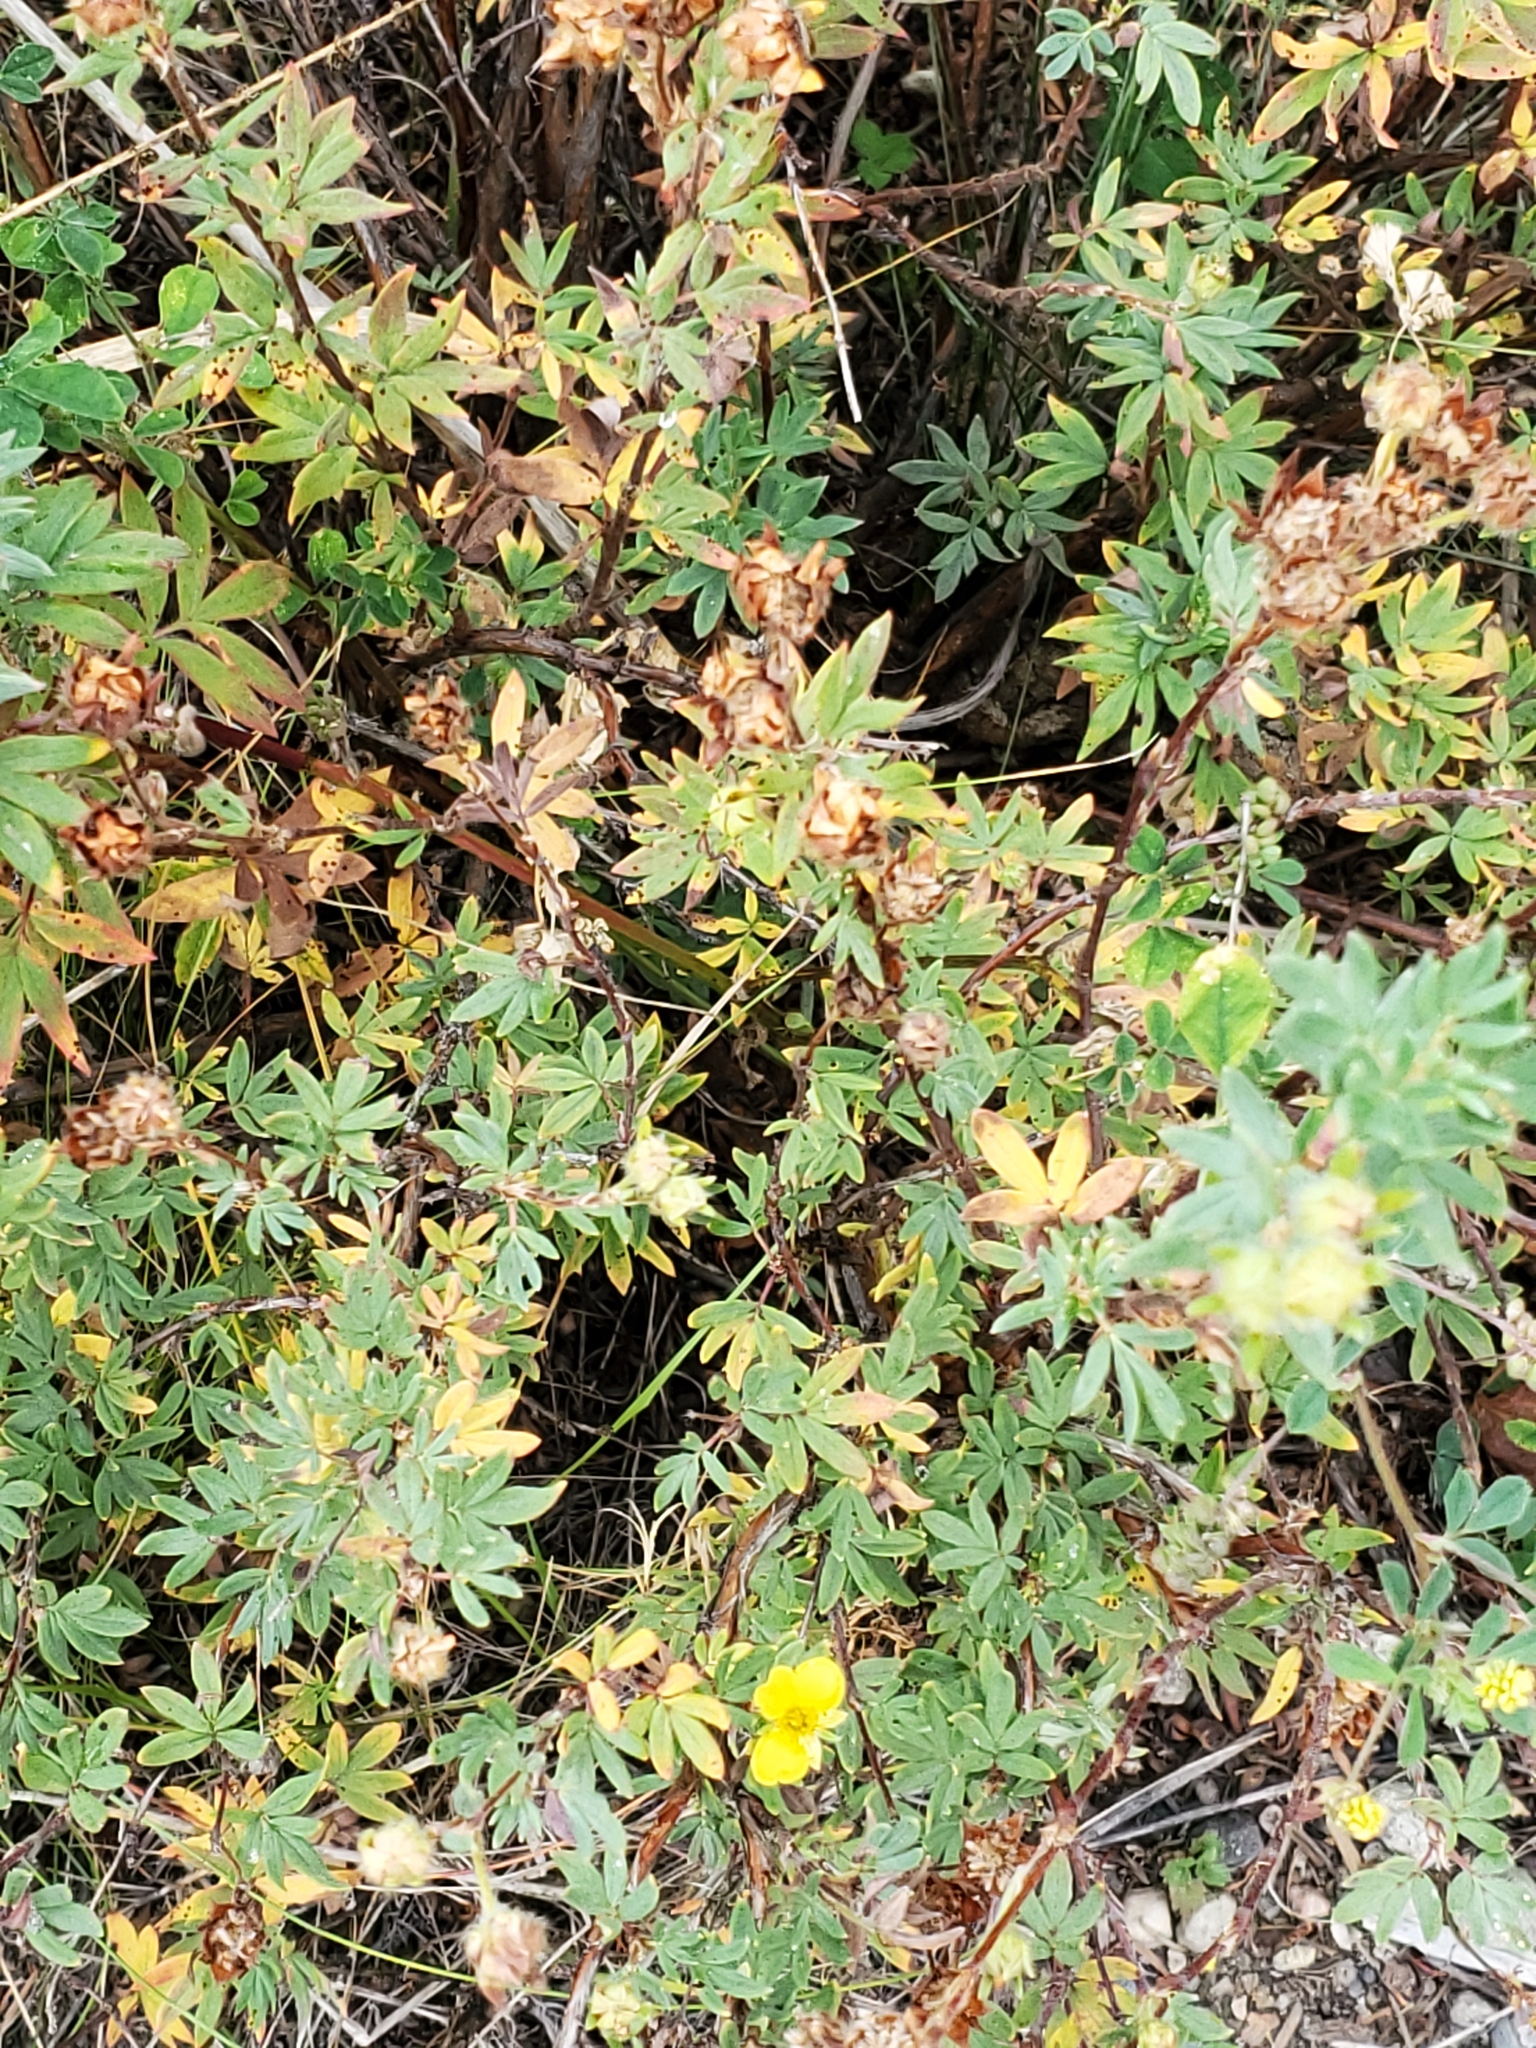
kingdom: Plantae
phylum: Tracheophyta
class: Magnoliopsida
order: Rosales
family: Rosaceae
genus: Dasiphora
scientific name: Dasiphora fruticosa
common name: Shrubby cinquefoil
